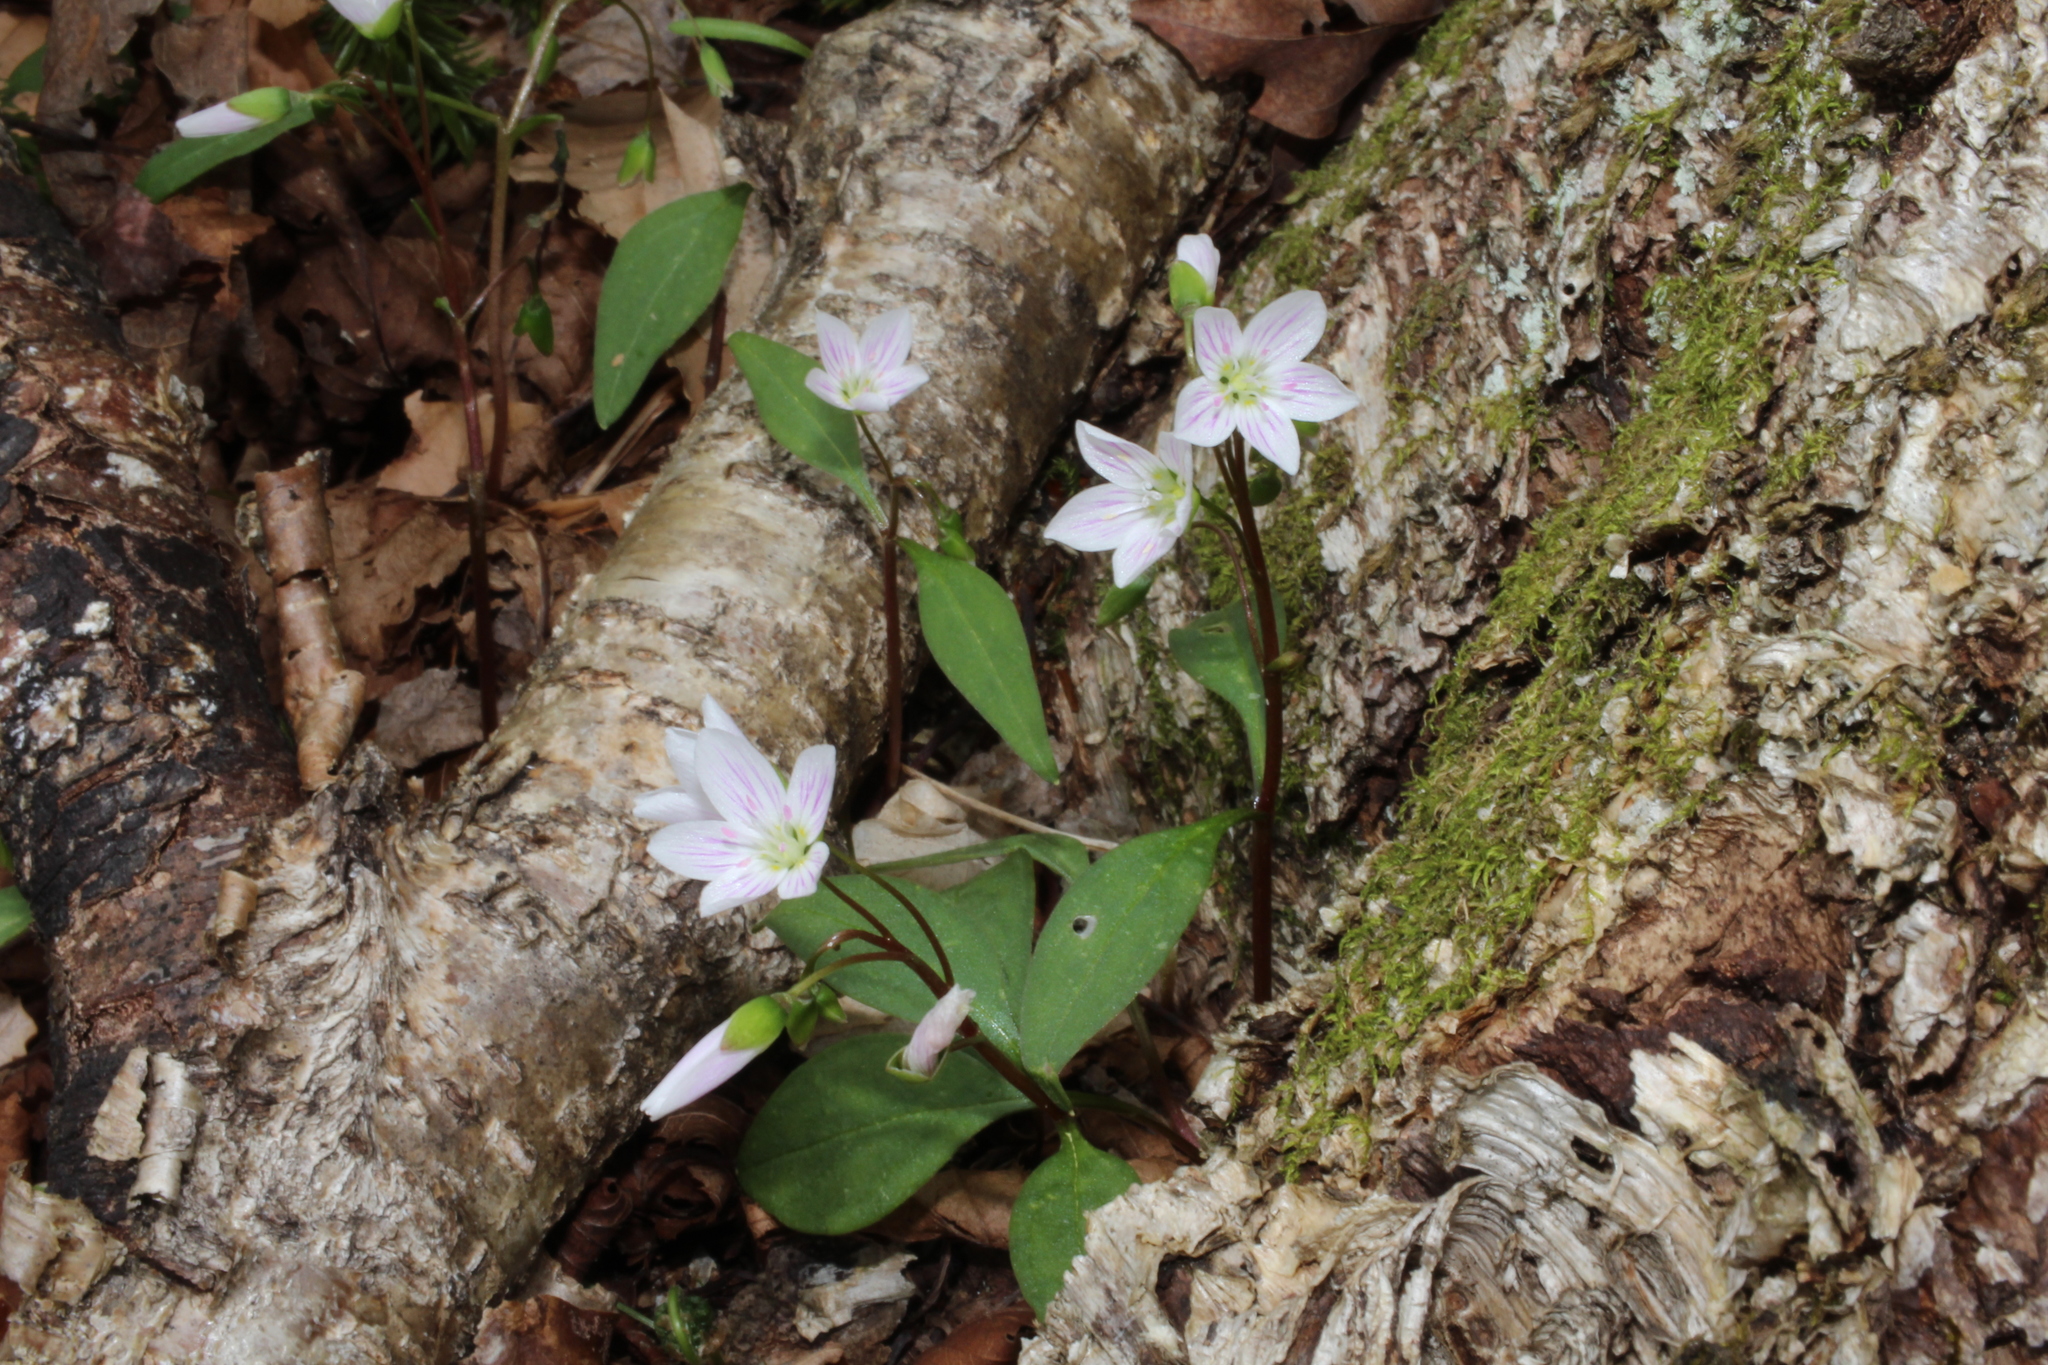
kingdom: Plantae
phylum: Tracheophyta
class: Magnoliopsida
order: Caryophyllales
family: Montiaceae
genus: Claytonia
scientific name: Claytonia caroliniana
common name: Carolina spring beauty
